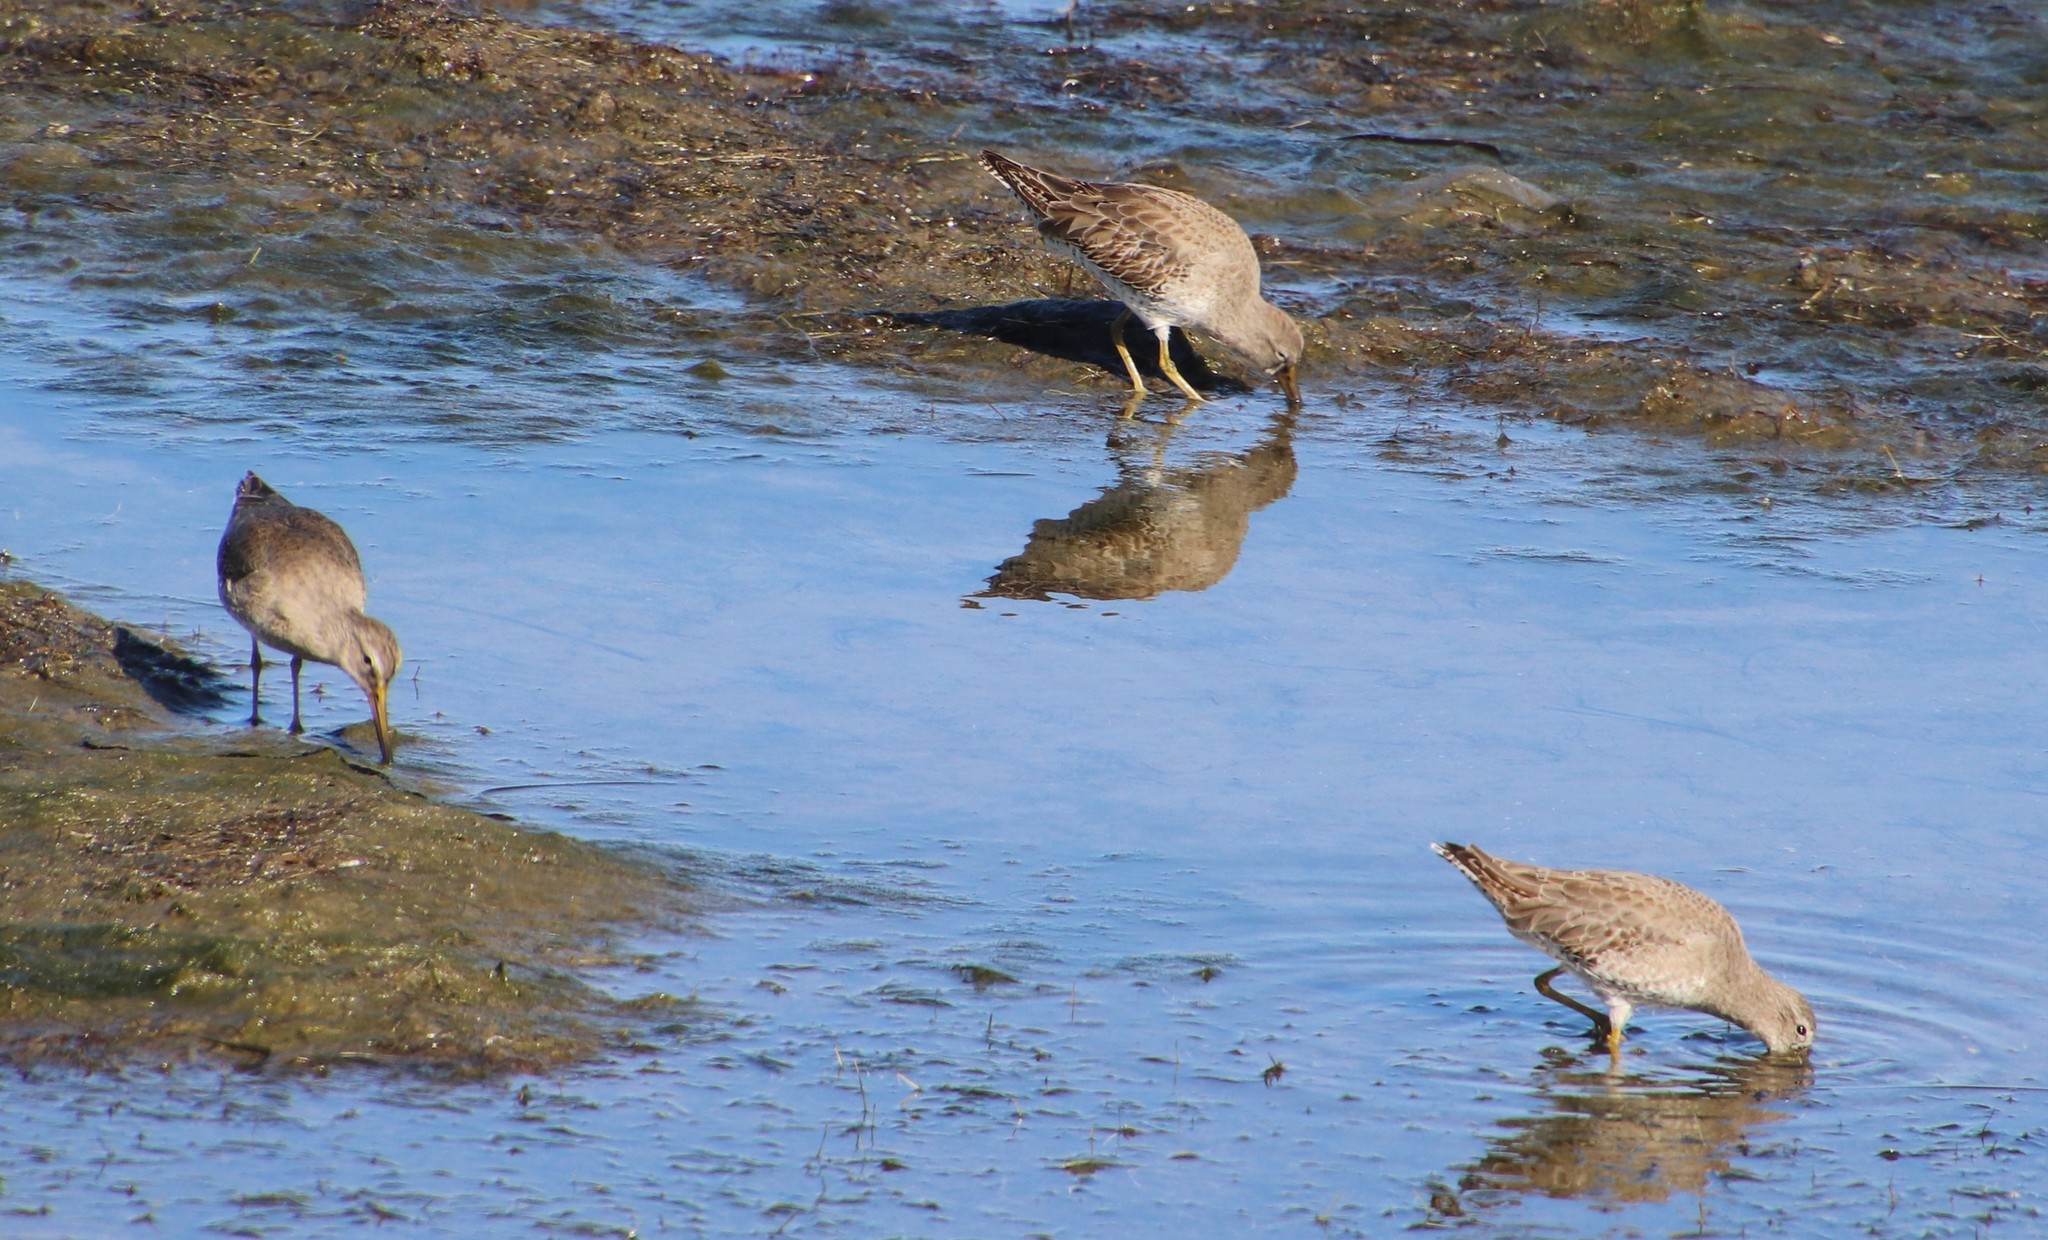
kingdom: Animalia
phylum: Chordata
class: Aves
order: Charadriiformes
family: Scolopacidae
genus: Limnodromus
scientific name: Limnodromus
